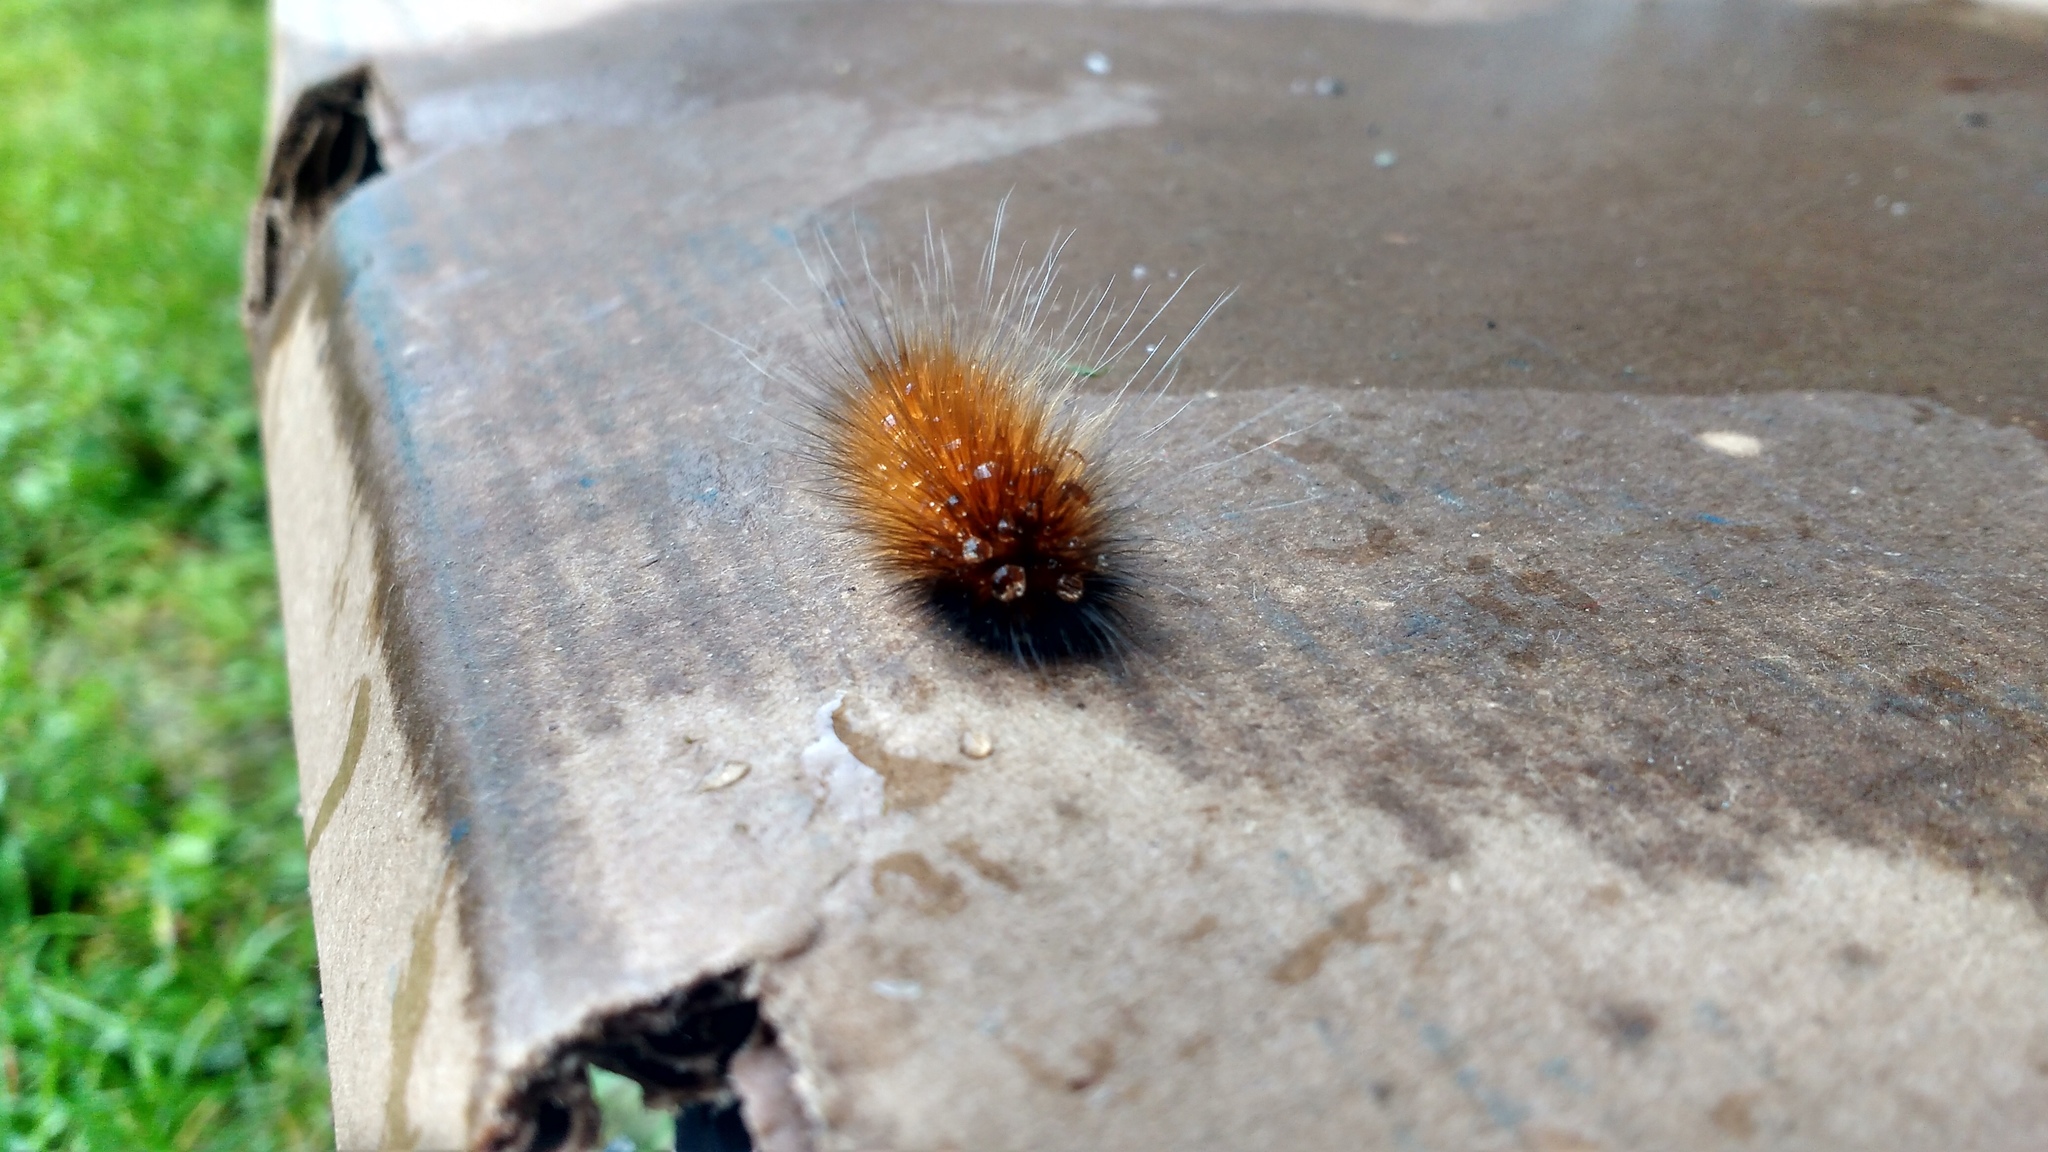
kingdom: Animalia
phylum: Arthropoda
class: Insecta
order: Lepidoptera
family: Erebidae
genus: Spilosoma
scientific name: Spilosoma virginica
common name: Virginia tiger moth
